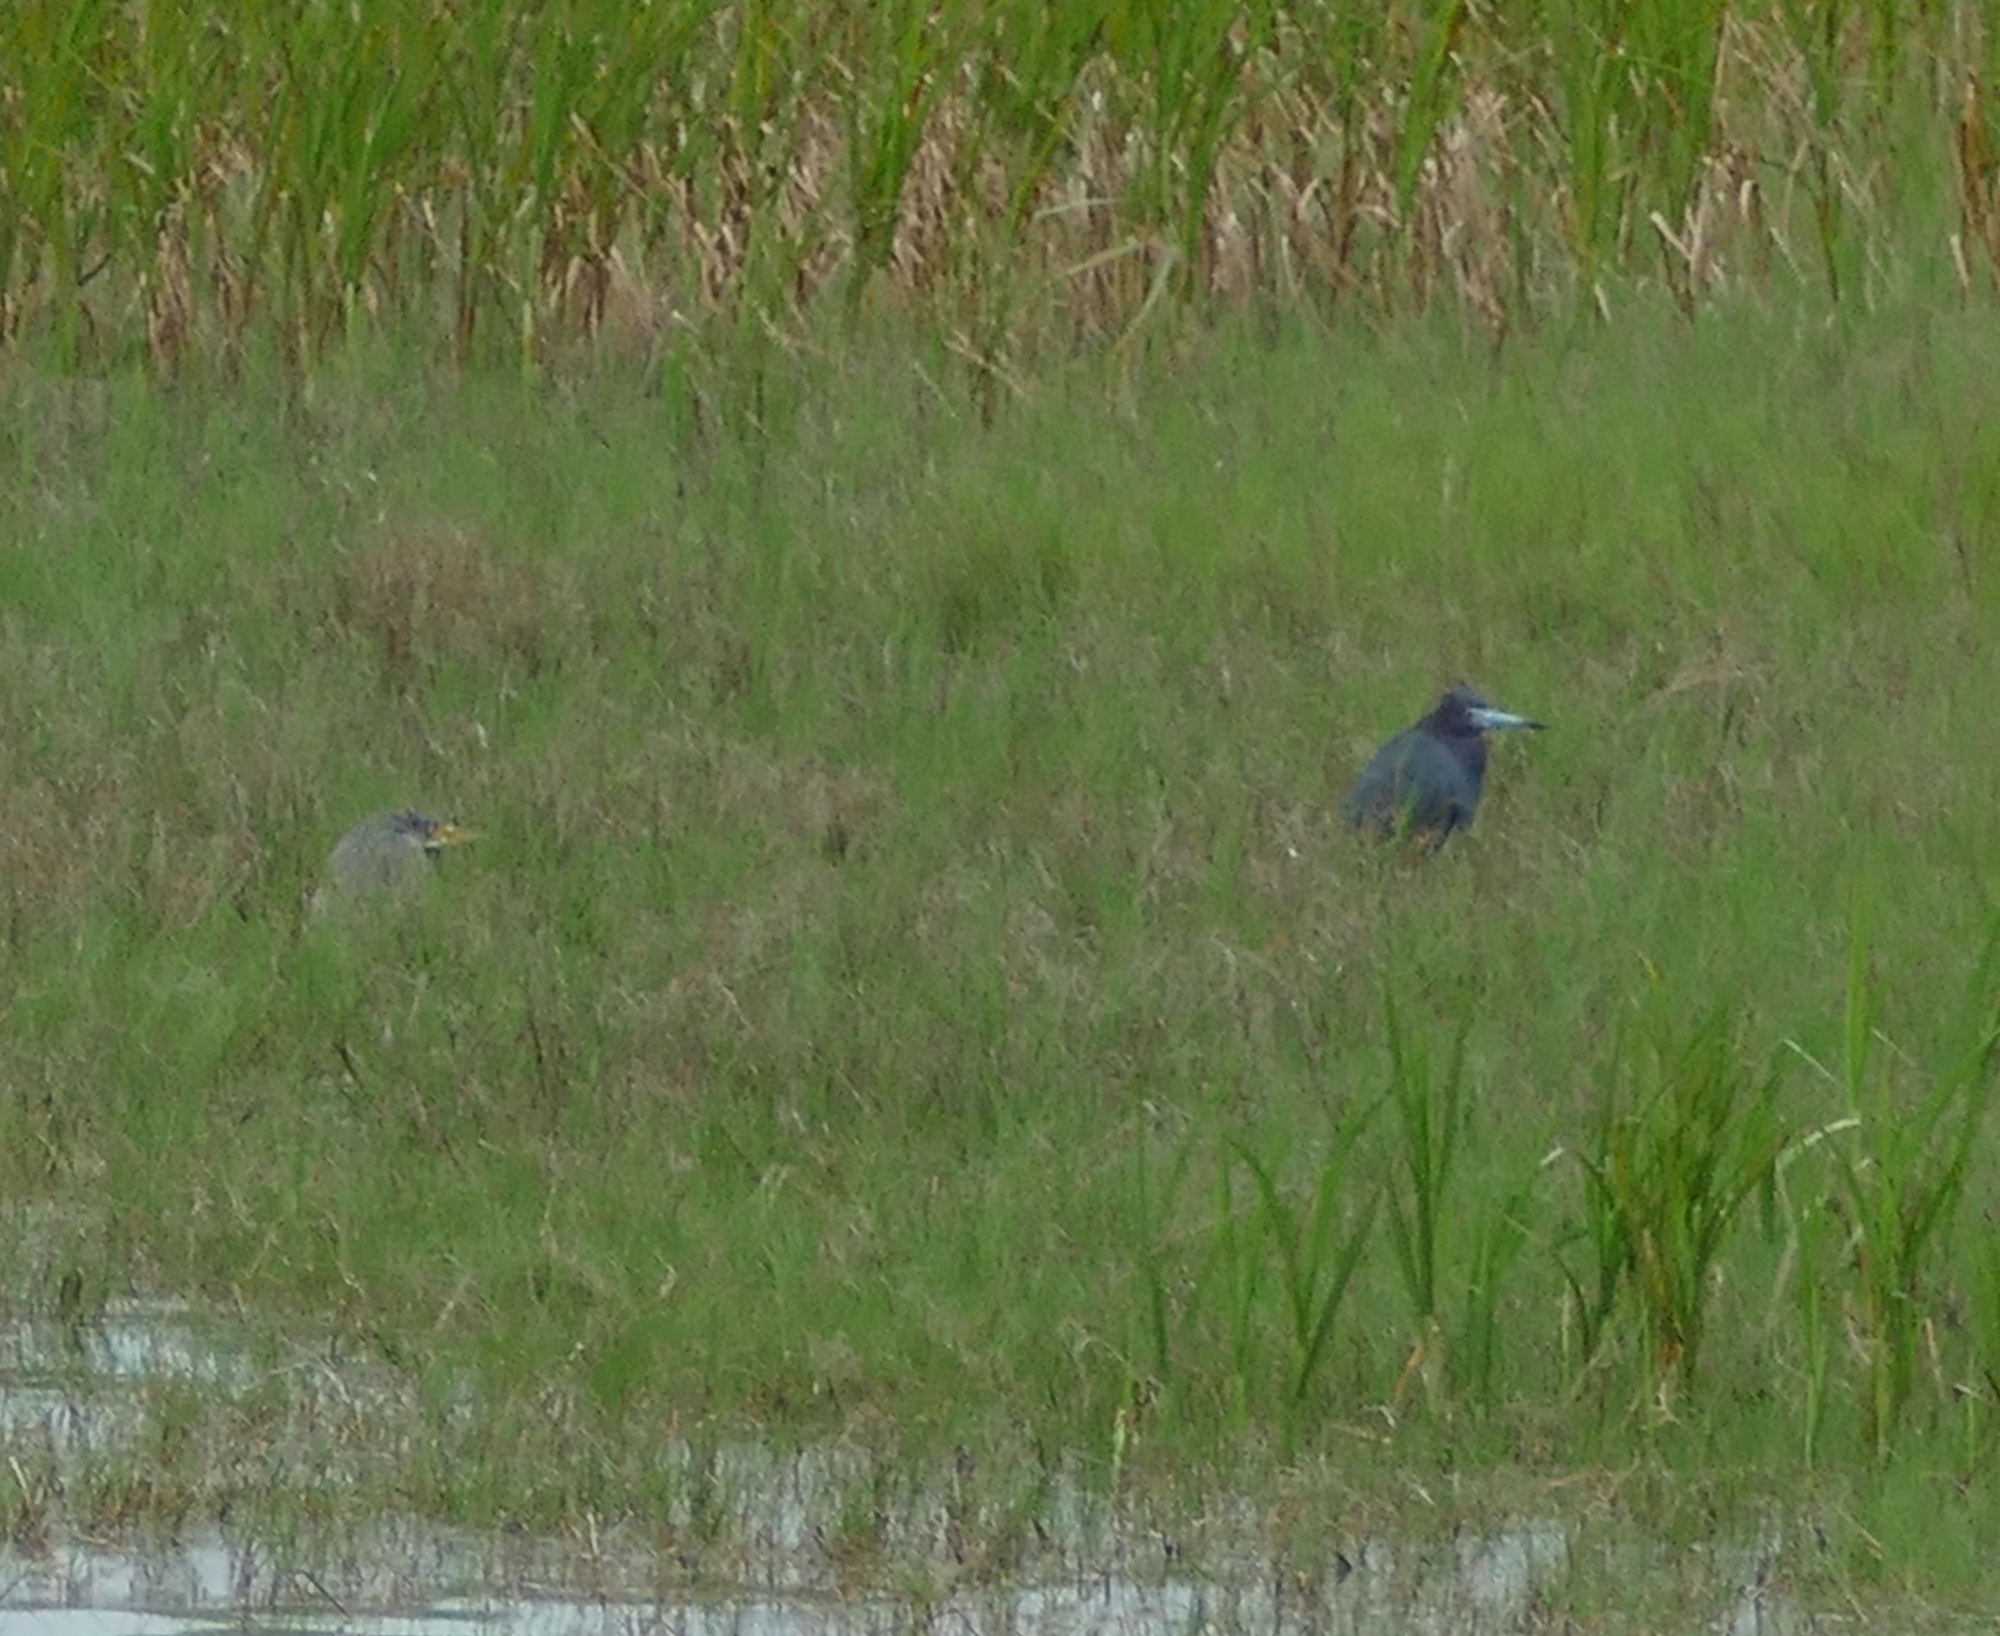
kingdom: Animalia
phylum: Chordata
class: Aves
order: Pelecaniformes
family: Ardeidae
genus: Egretta
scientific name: Egretta tricolor
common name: Tricolored heron
